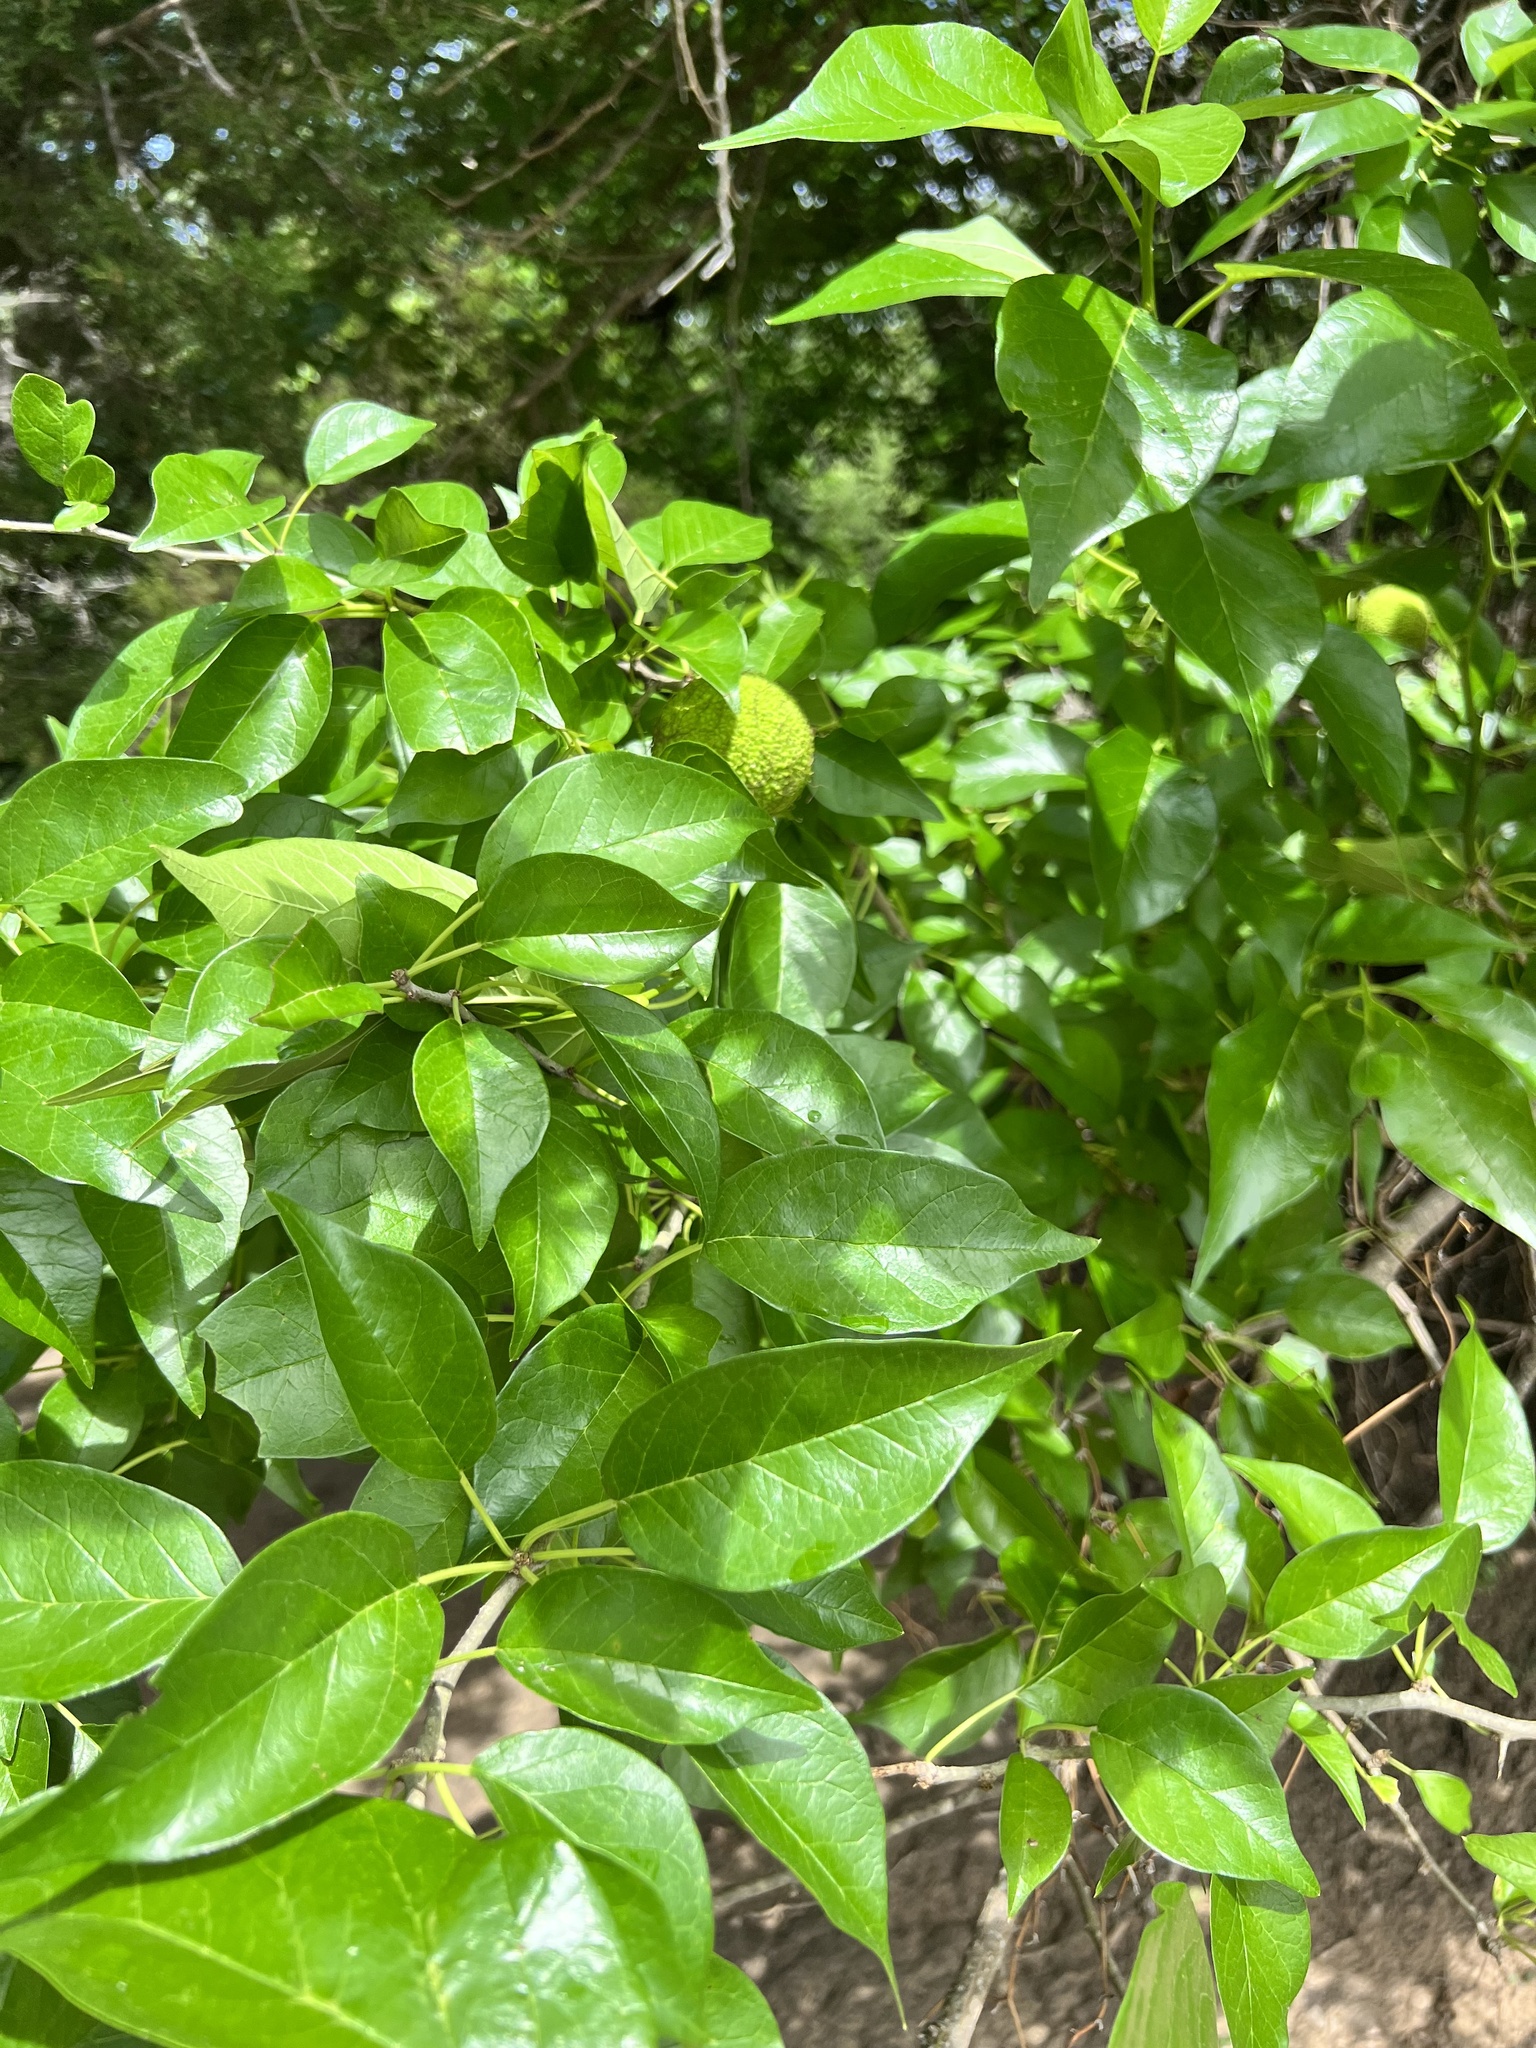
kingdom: Plantae
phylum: Tracheophyta
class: Magnoliopsida
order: Rosales
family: Moraceae
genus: Maclura
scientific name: Maclura pomifera
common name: Osage-orange
